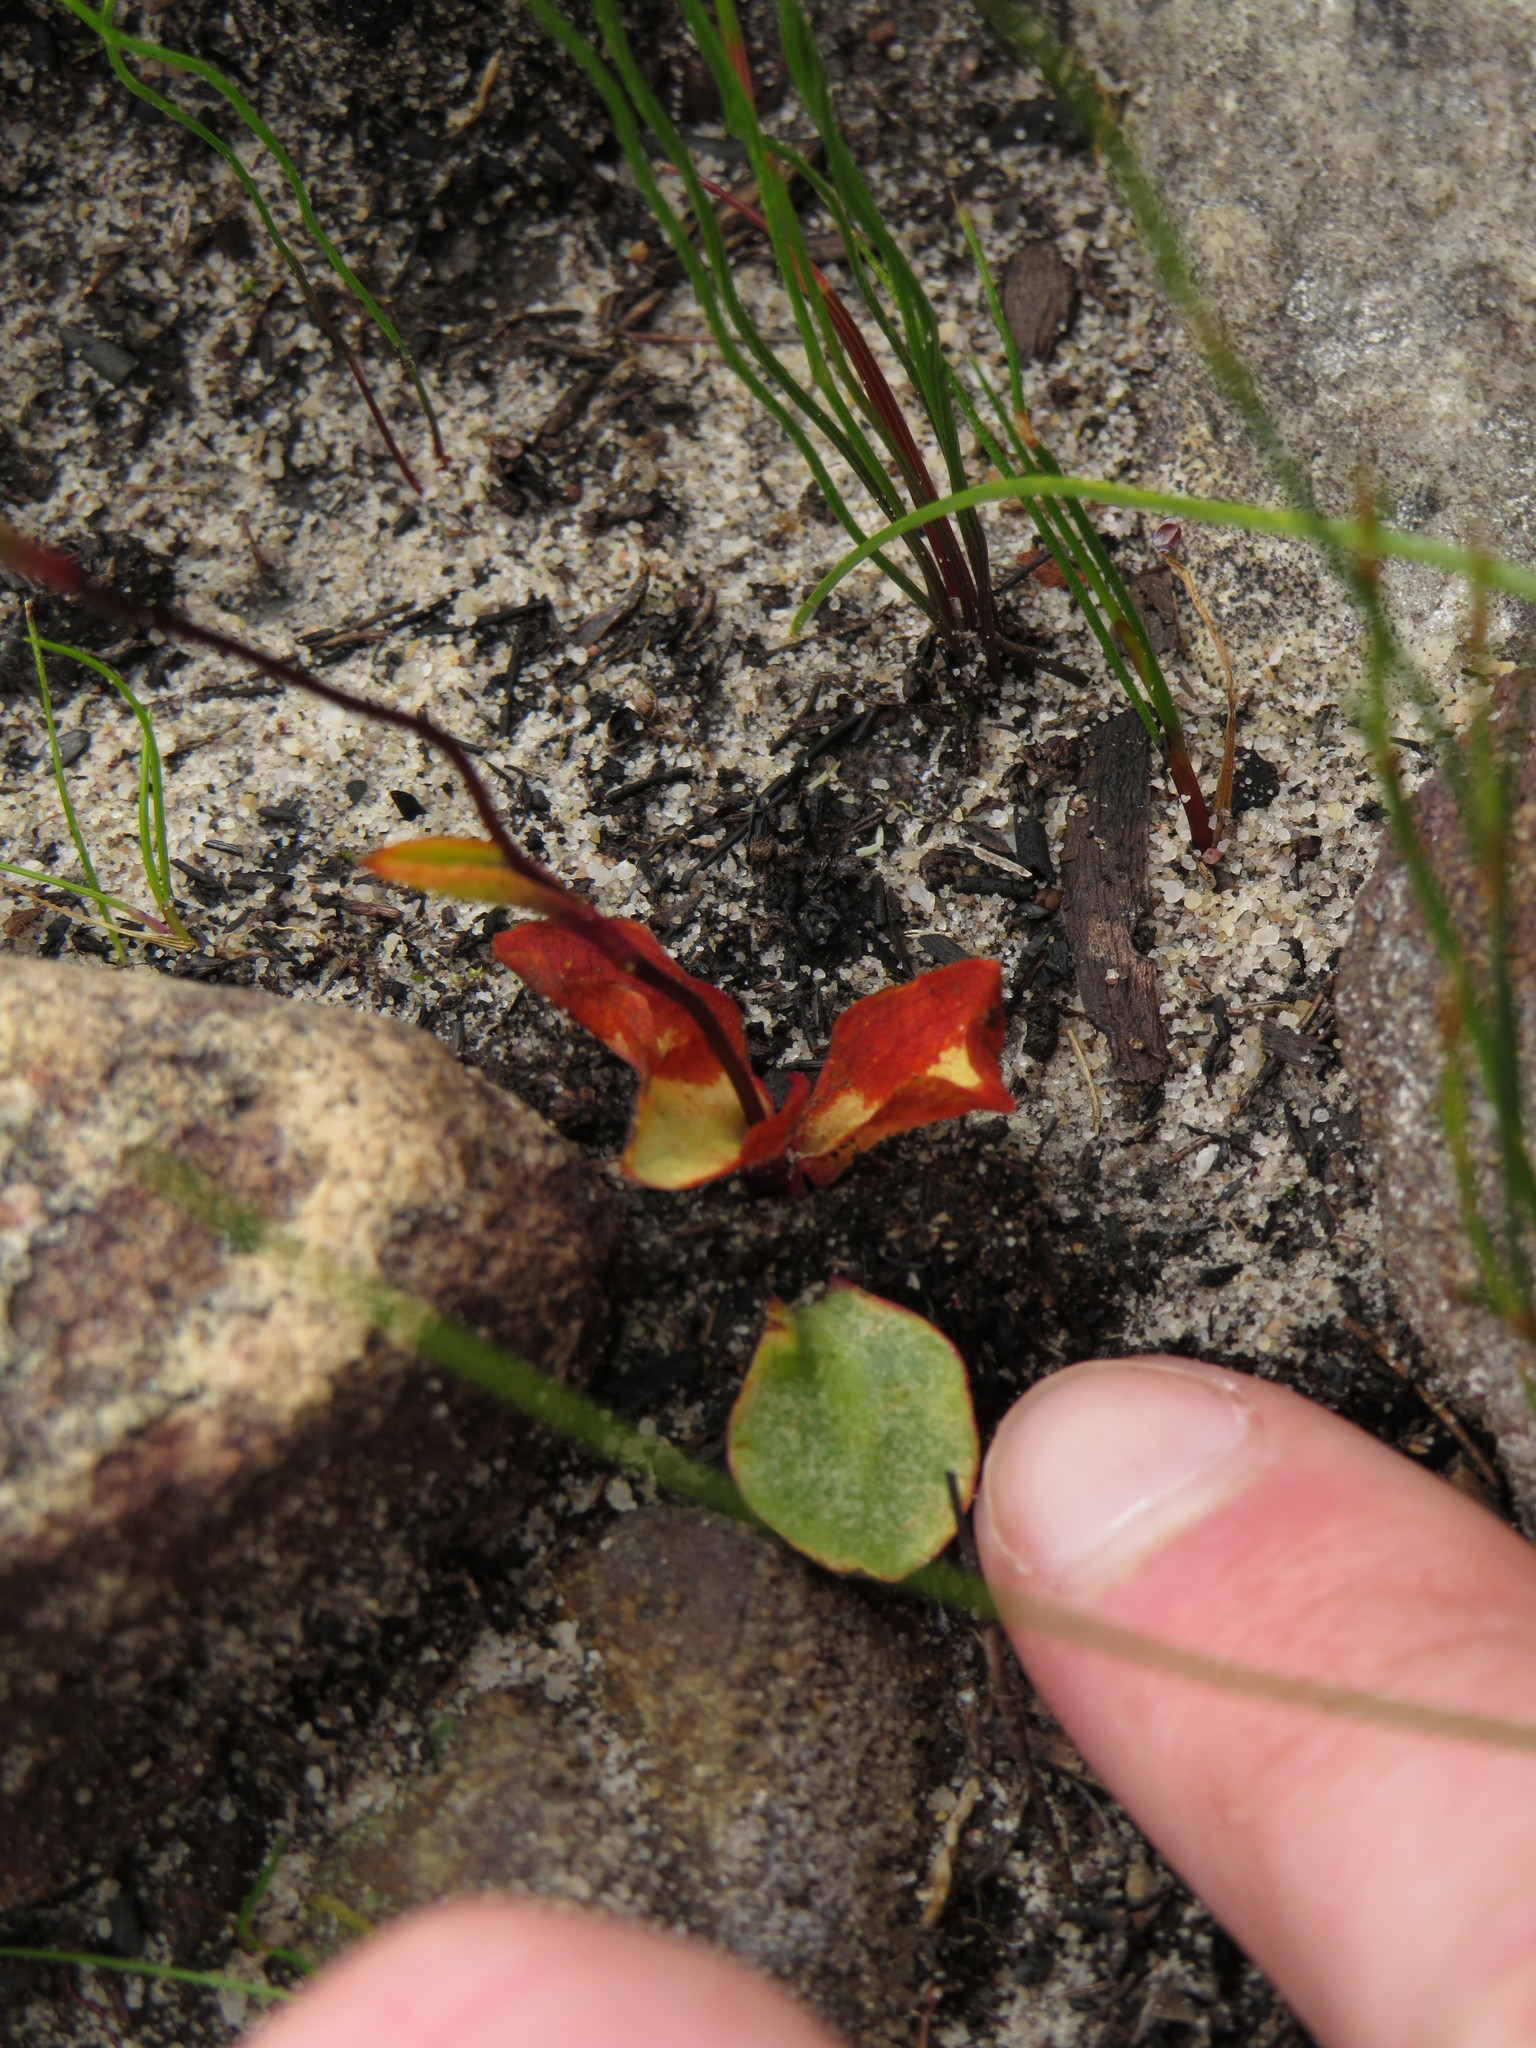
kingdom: Plantae
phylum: Tracheophyta
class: Liliopsida
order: Asparagales
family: Orchidaceae
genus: Disa
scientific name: Disa obliqua
